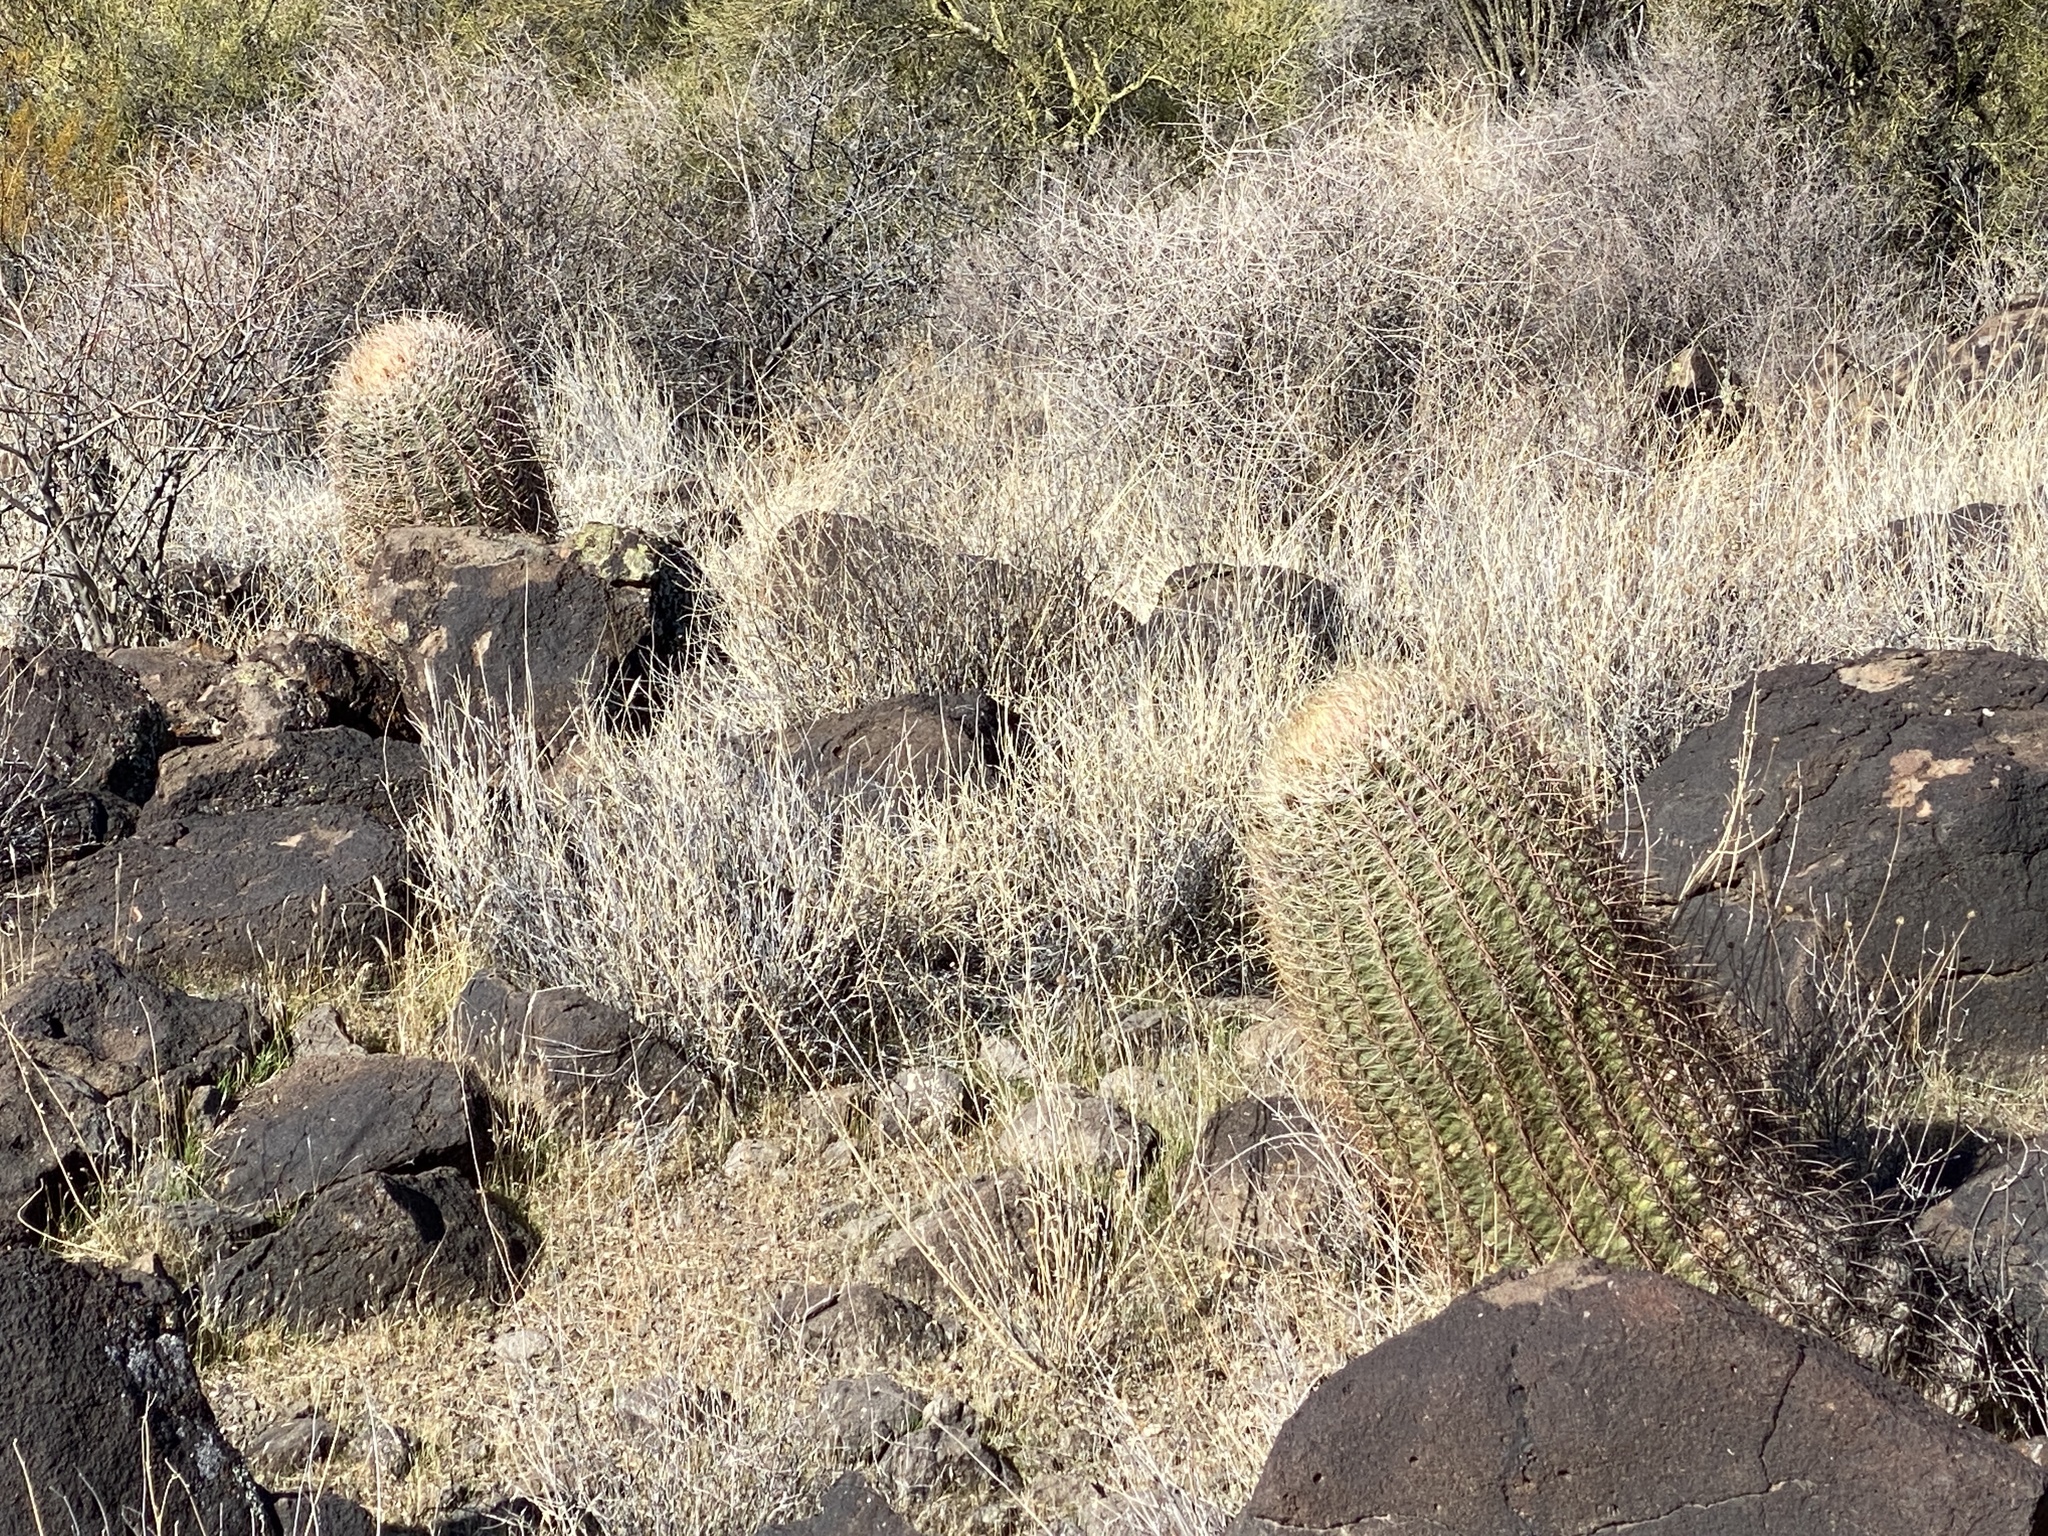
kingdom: Plantae
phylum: Tracheophyta
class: Magnoliopsida
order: Caryophyllales
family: Cactaceae
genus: Ferocactus
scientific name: Ferocactus cylindraceus
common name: California barrel cactus
